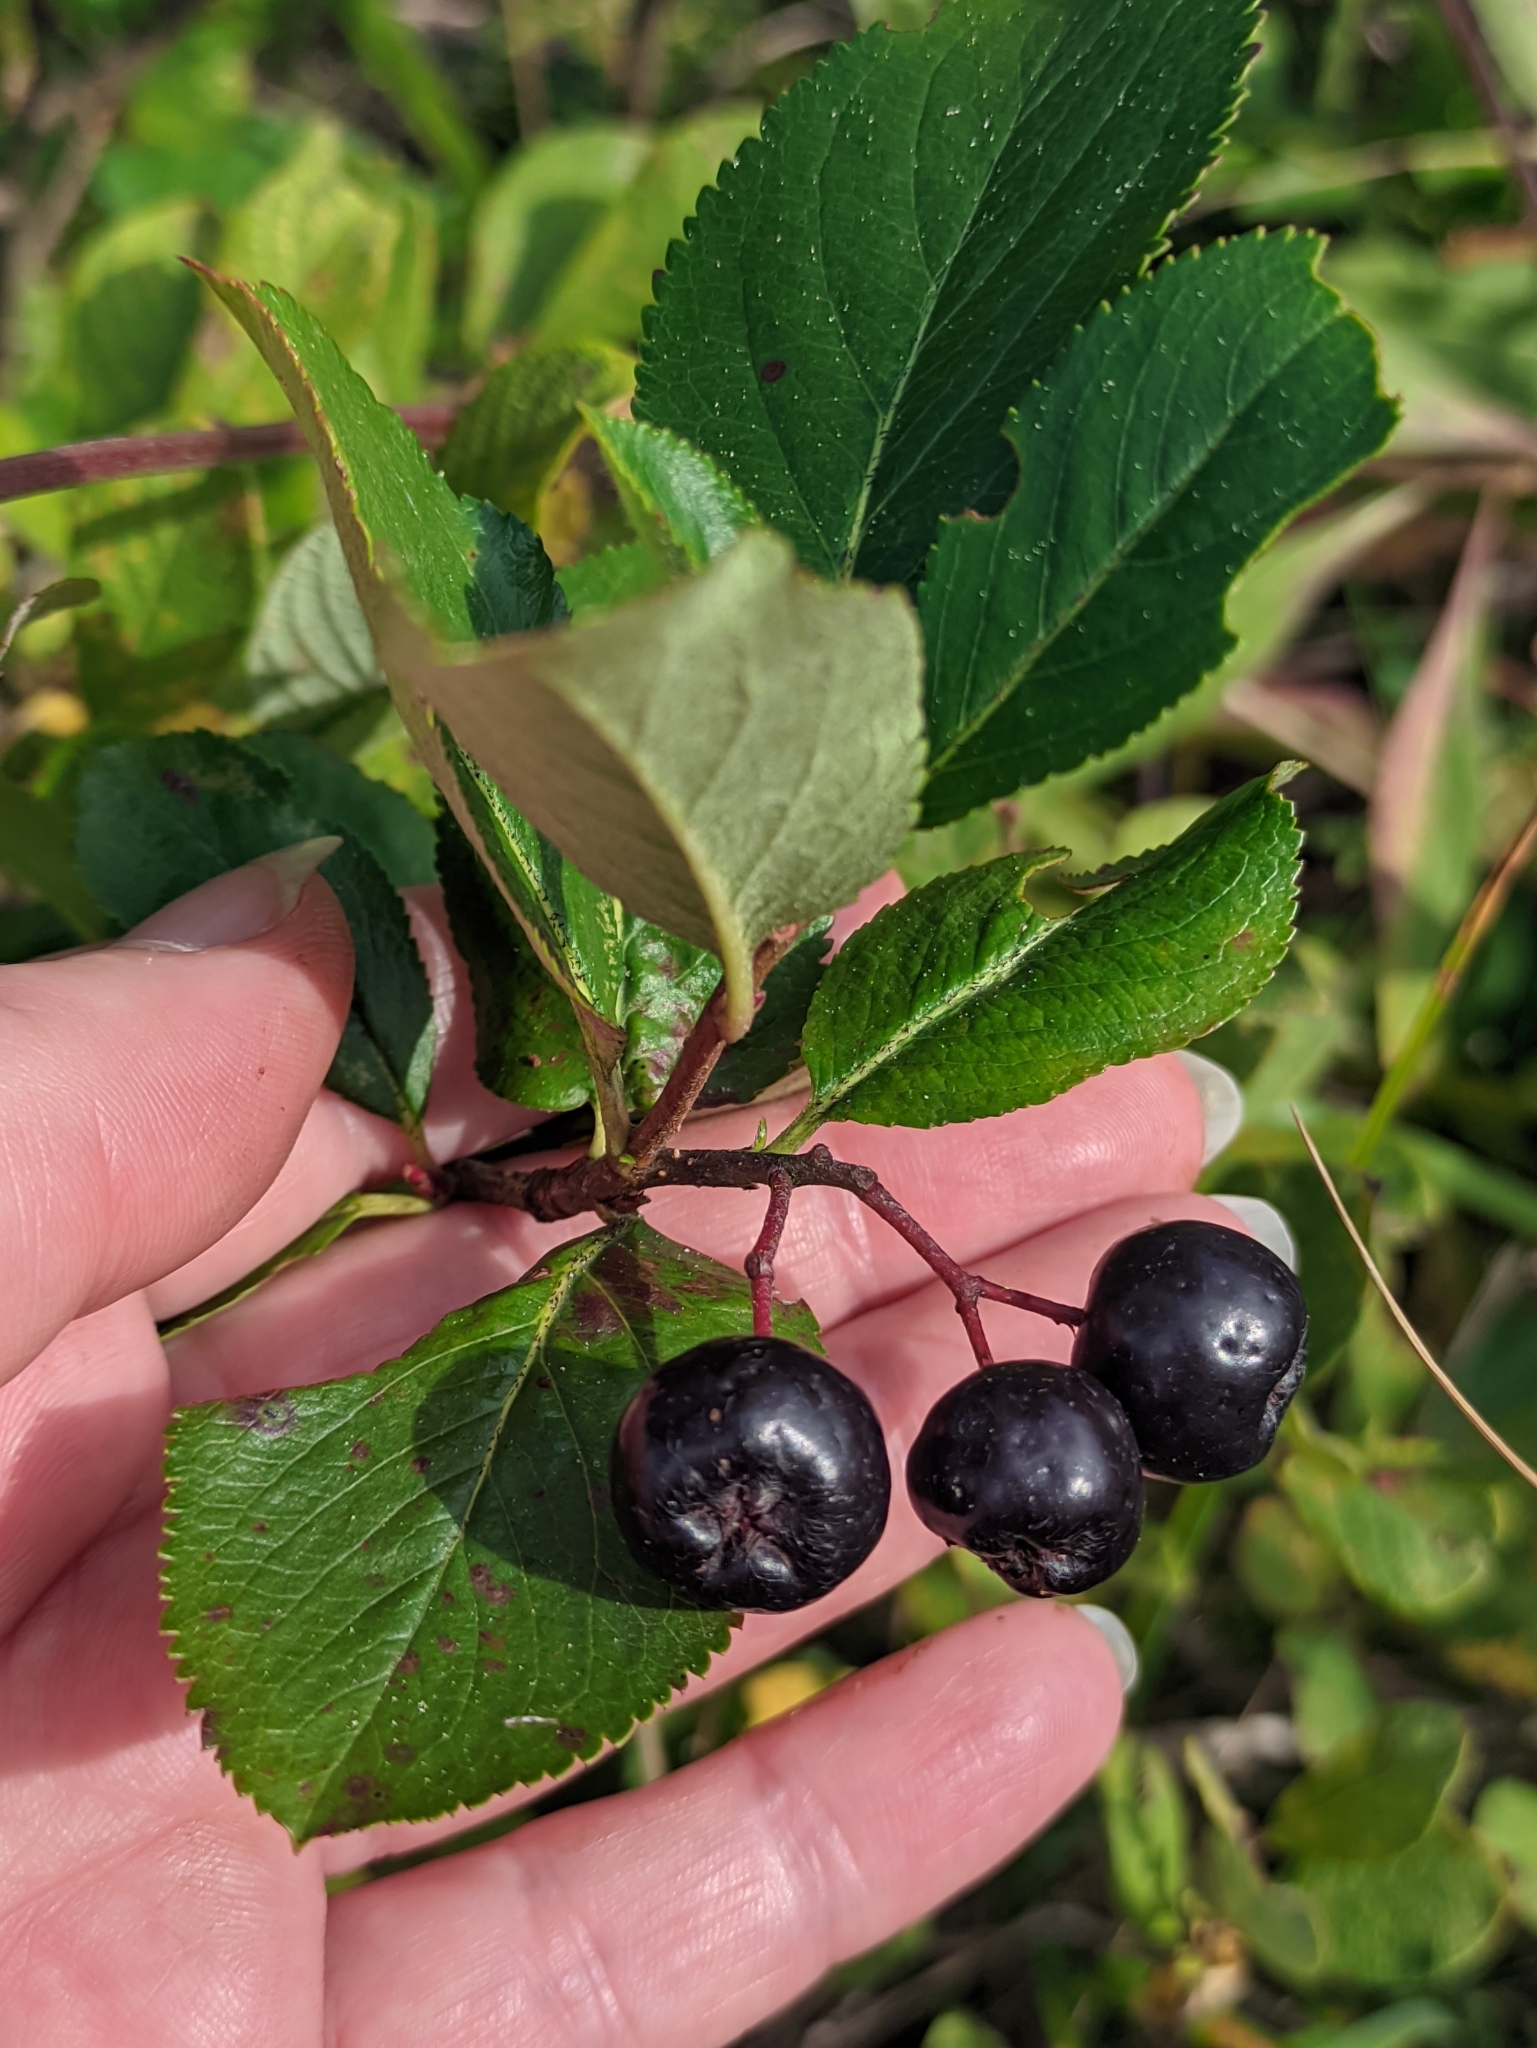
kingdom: Plantae
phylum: Tracheophyta
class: Magnoliopsida
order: Rosales
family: Rosaceae
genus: Sorbaronia
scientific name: Sorbaronia arsenii
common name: Arsène's mountain-ash
